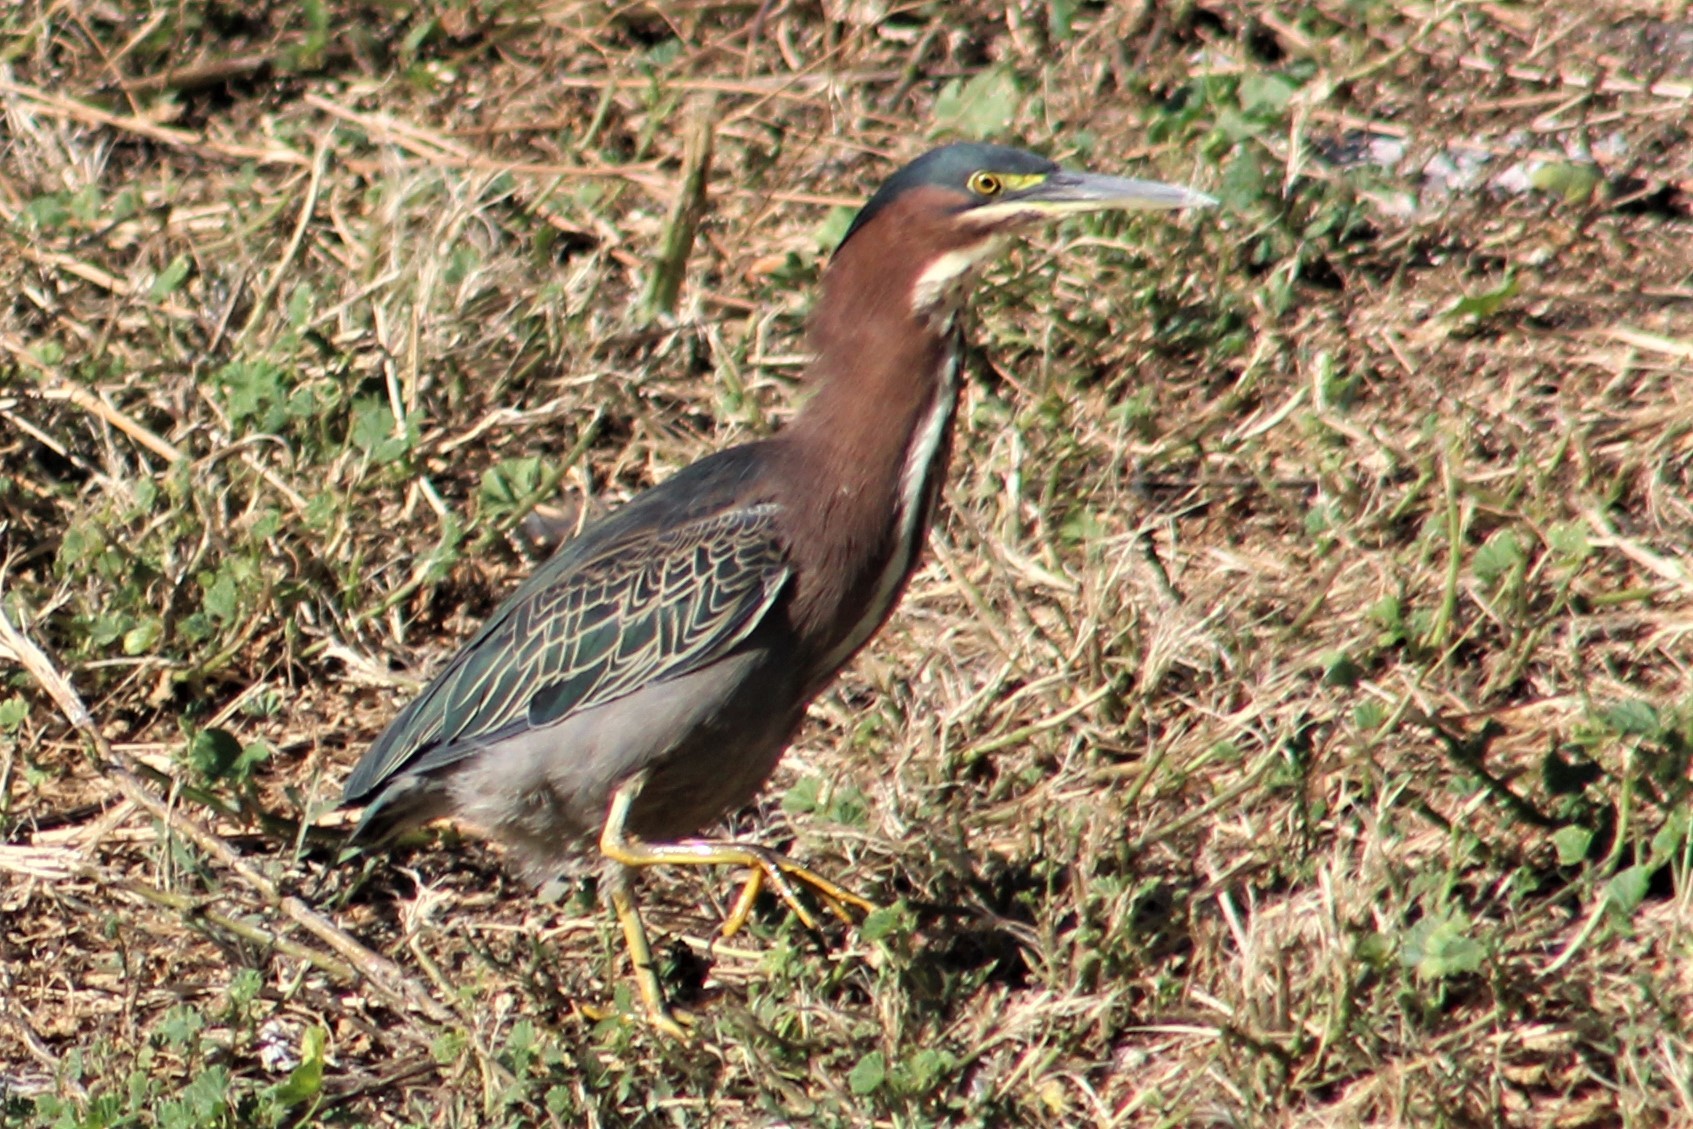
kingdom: Animalia
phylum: Chordata
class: Aves
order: Pelecaniformes
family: Ardeidae
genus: Butorides
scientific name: Butorides virescens
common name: Green heron
